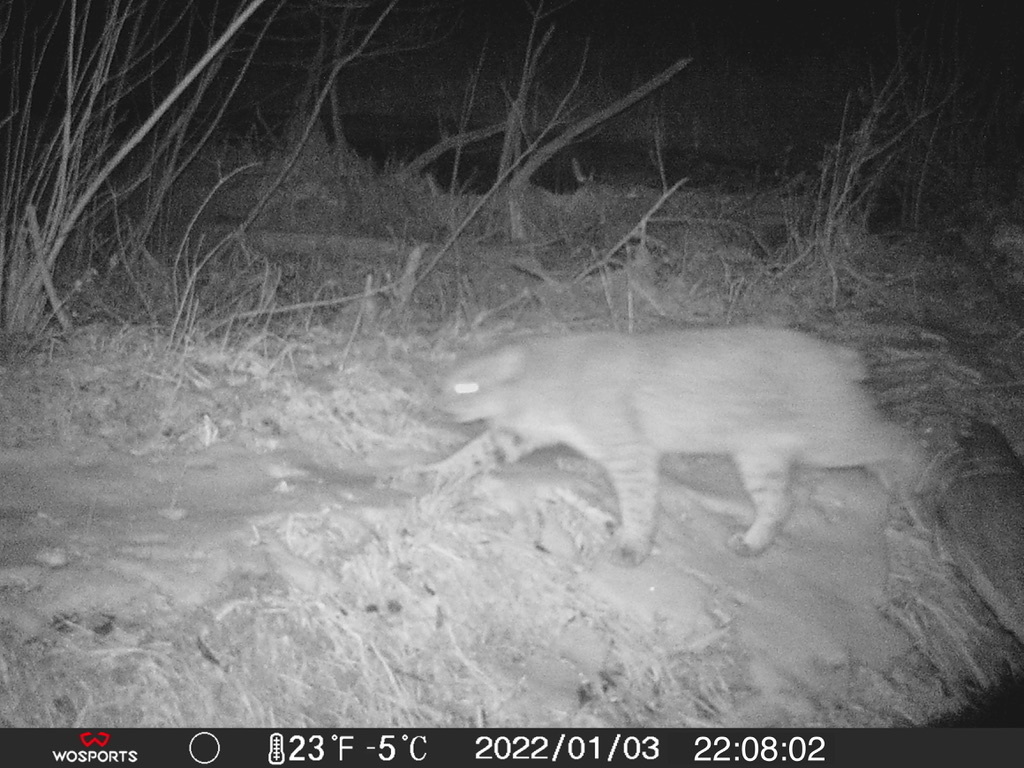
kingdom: Animalia
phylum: Chordata
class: Mammalia
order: Carnivora
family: Felidae
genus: Lynx
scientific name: Lynx rufus
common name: Bobcat
